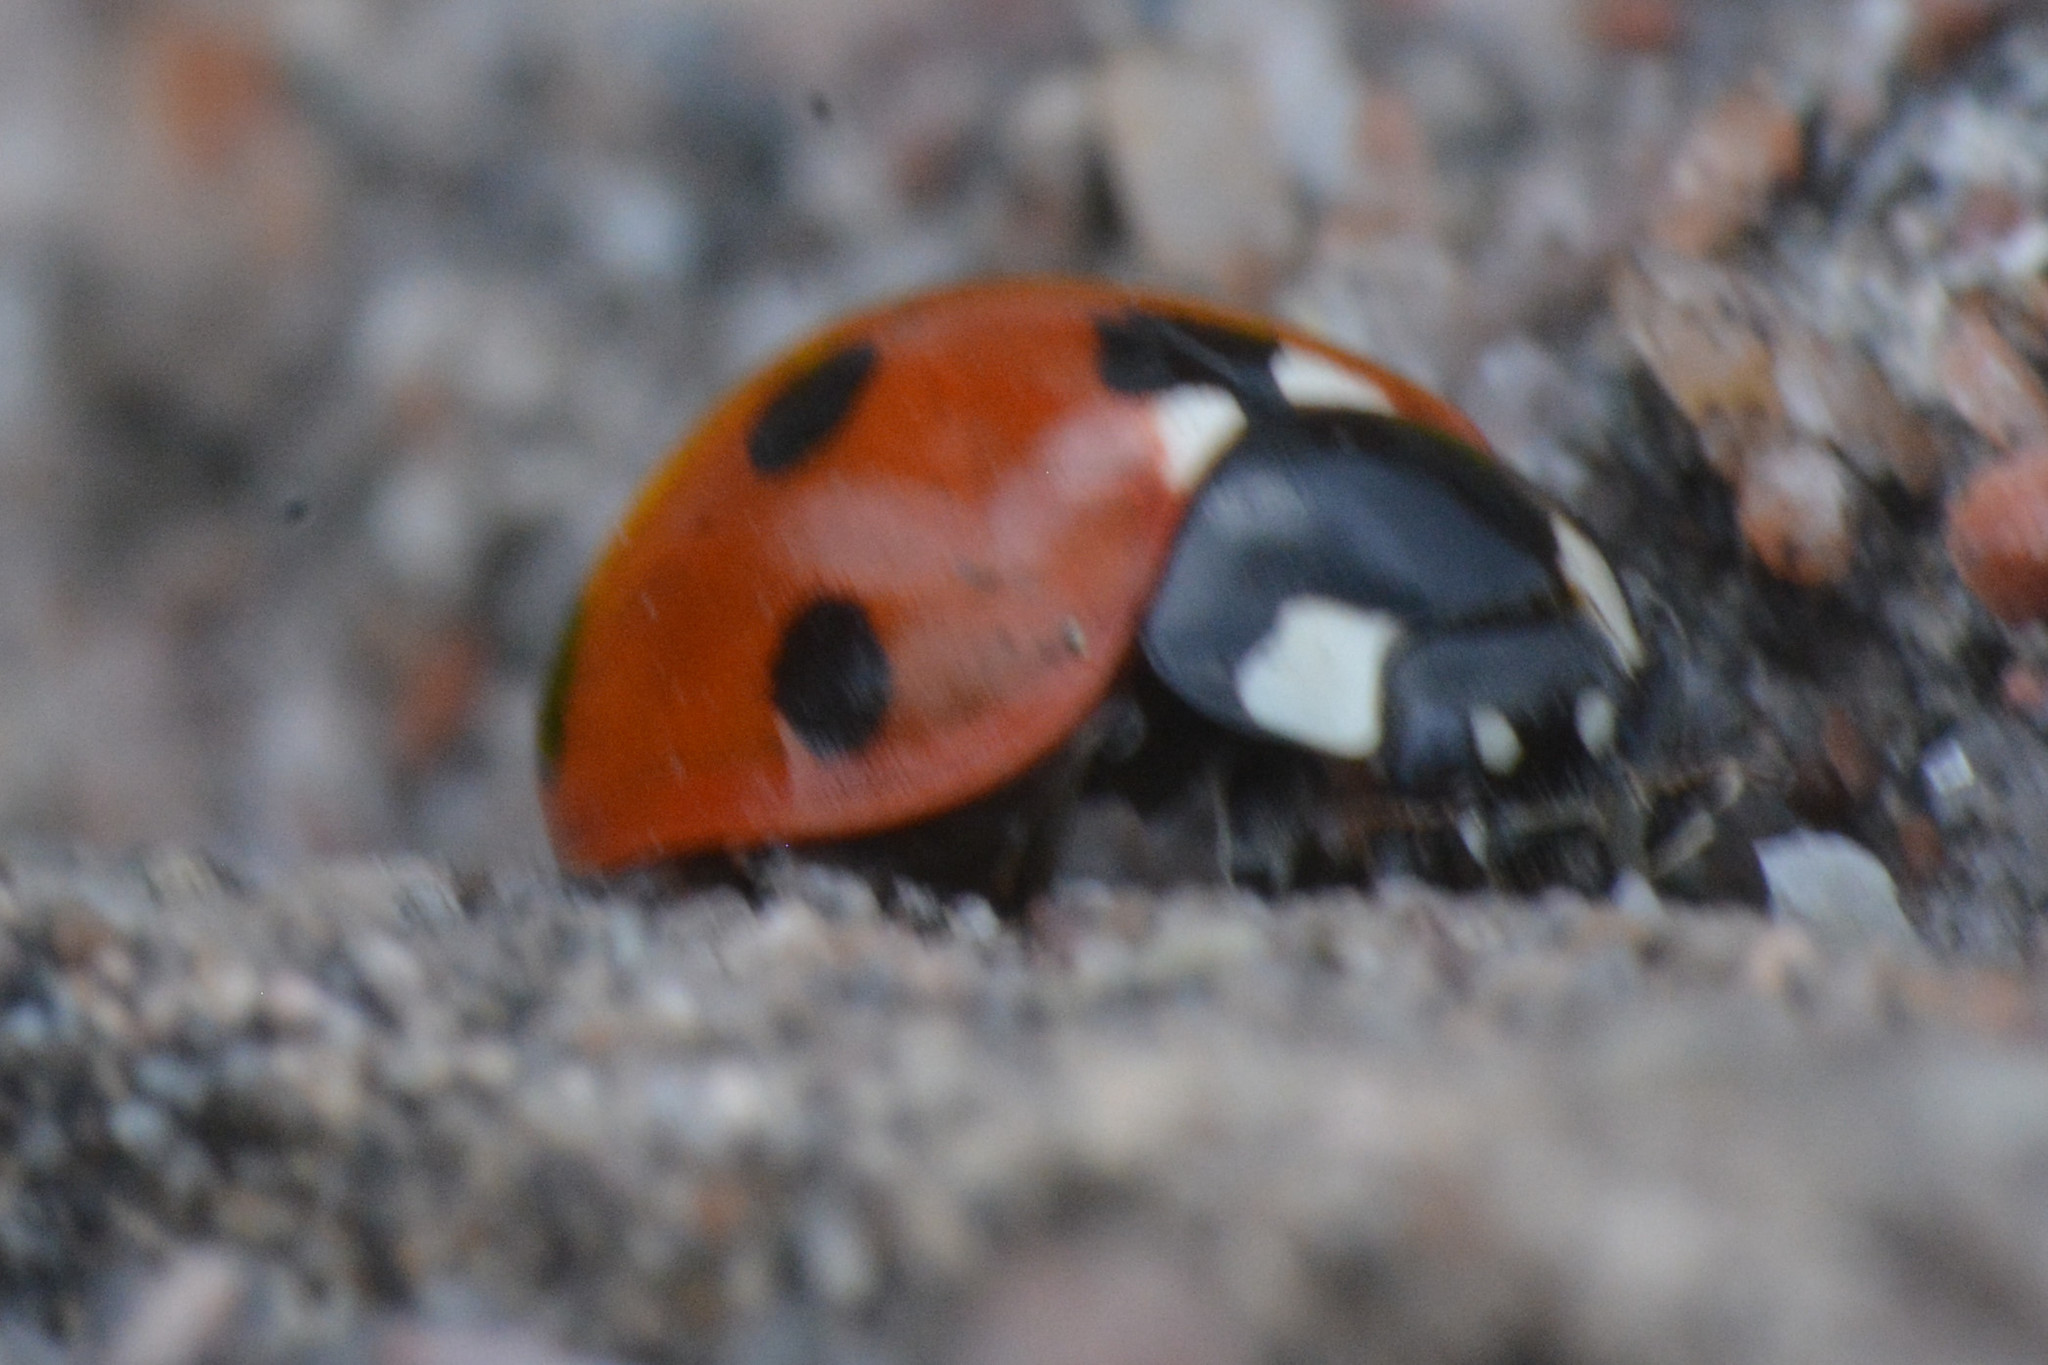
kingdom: Animalia
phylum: Arthropoda
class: Insecta
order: Coleoptera
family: Coccinellidae
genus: Coccinella
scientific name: Coccinella septempunctata
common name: Sevenspotted lady beetle
